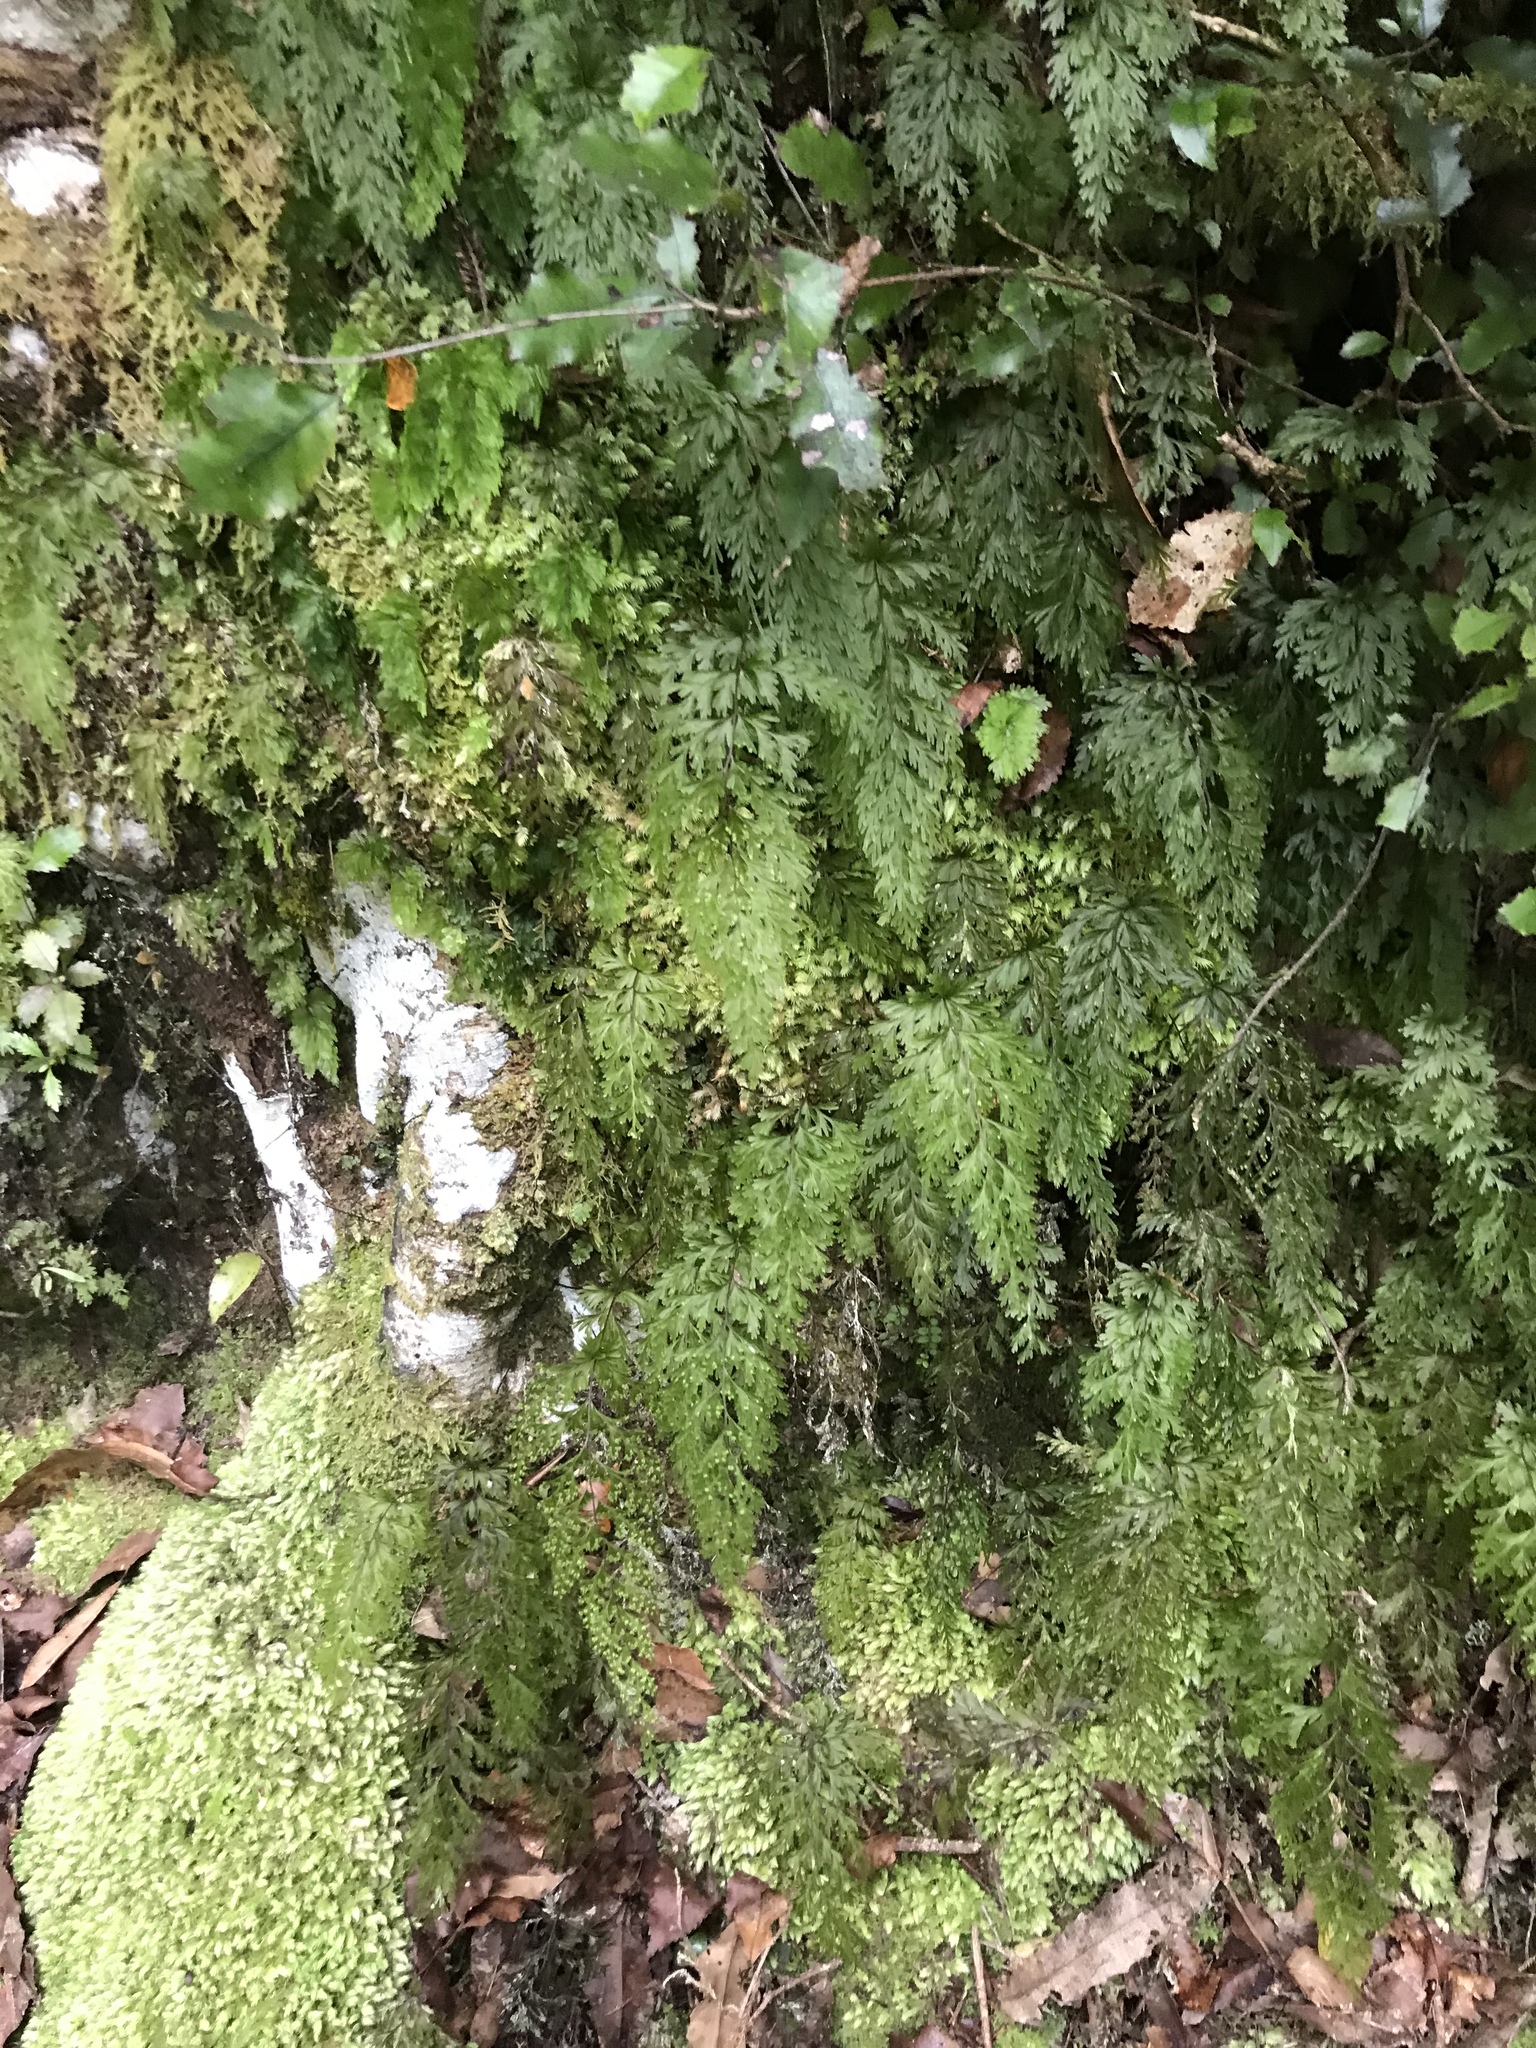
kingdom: Plantae
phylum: Tracheophyta
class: Polypodiopsida
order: Hymenophyllales
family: Hymenophyllaceae
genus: Hymenophyllum
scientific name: Hymenophyllum demissum
